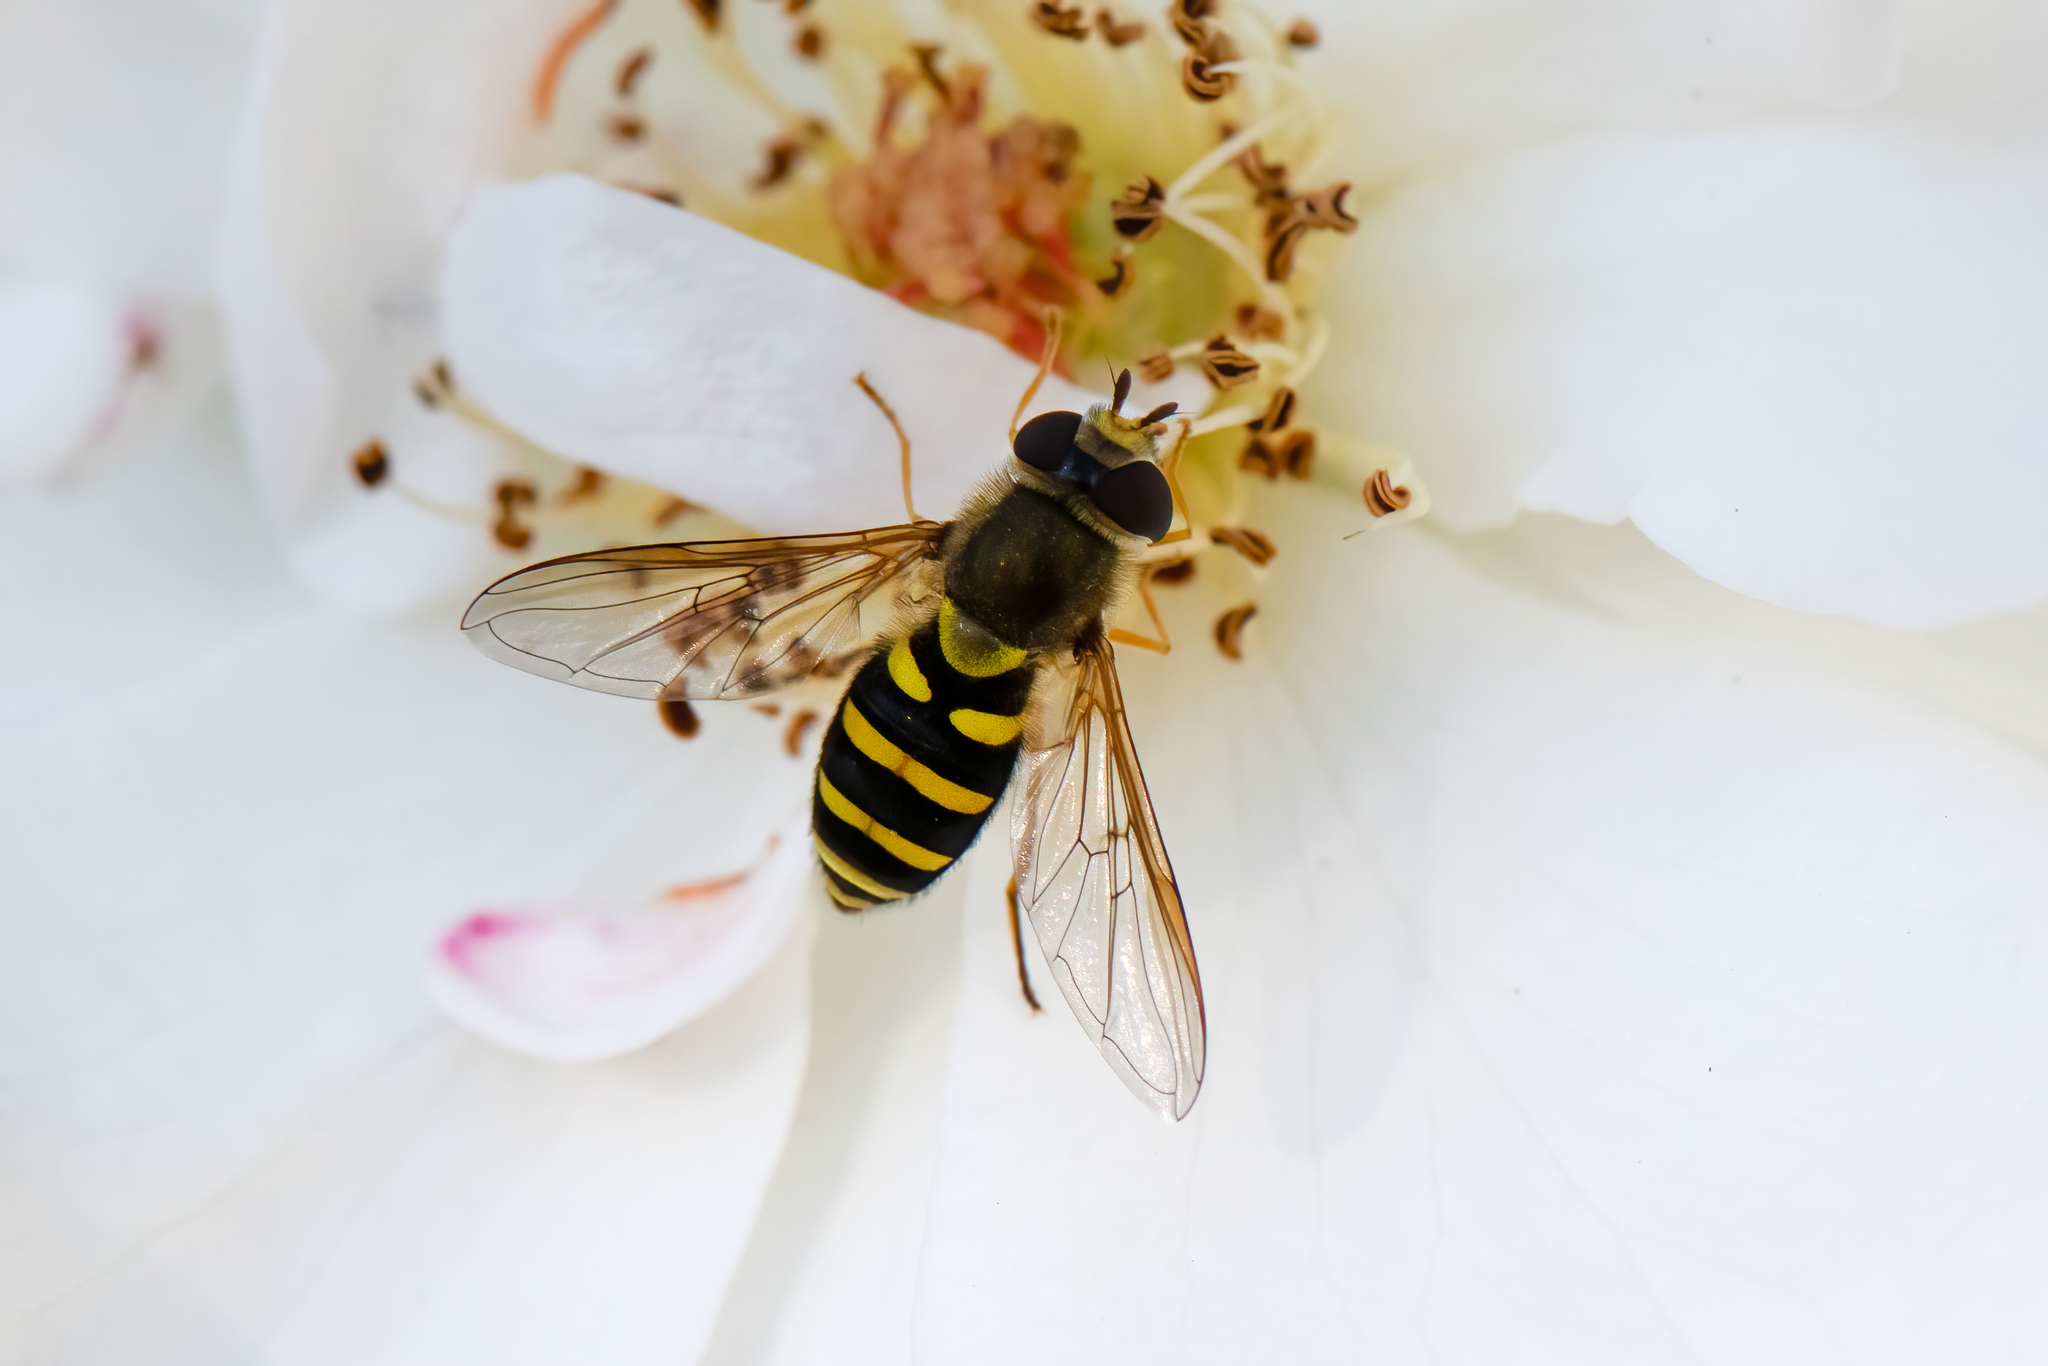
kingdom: Animalia
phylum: Arthropoda
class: Insecta
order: Diptera
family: Syrphidae
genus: Syrphus
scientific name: Syrphus opinator
